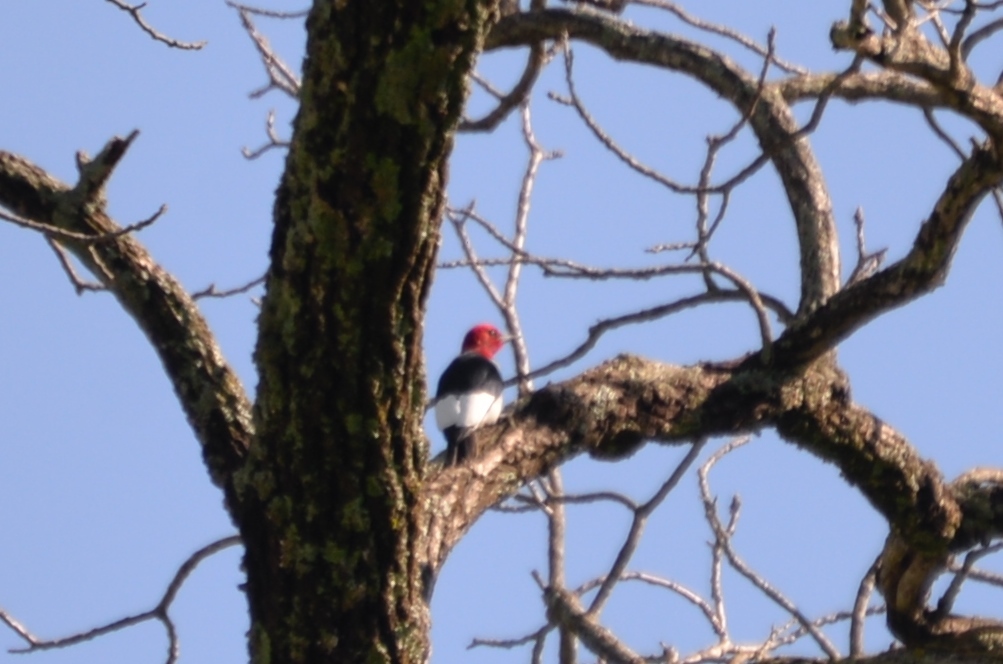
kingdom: Animalia
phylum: Chordata
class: Aves
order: Piciformes
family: Picidae
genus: Melanerpes
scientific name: Melanerpes erythrocephalus
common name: Red-headed woodpecker
